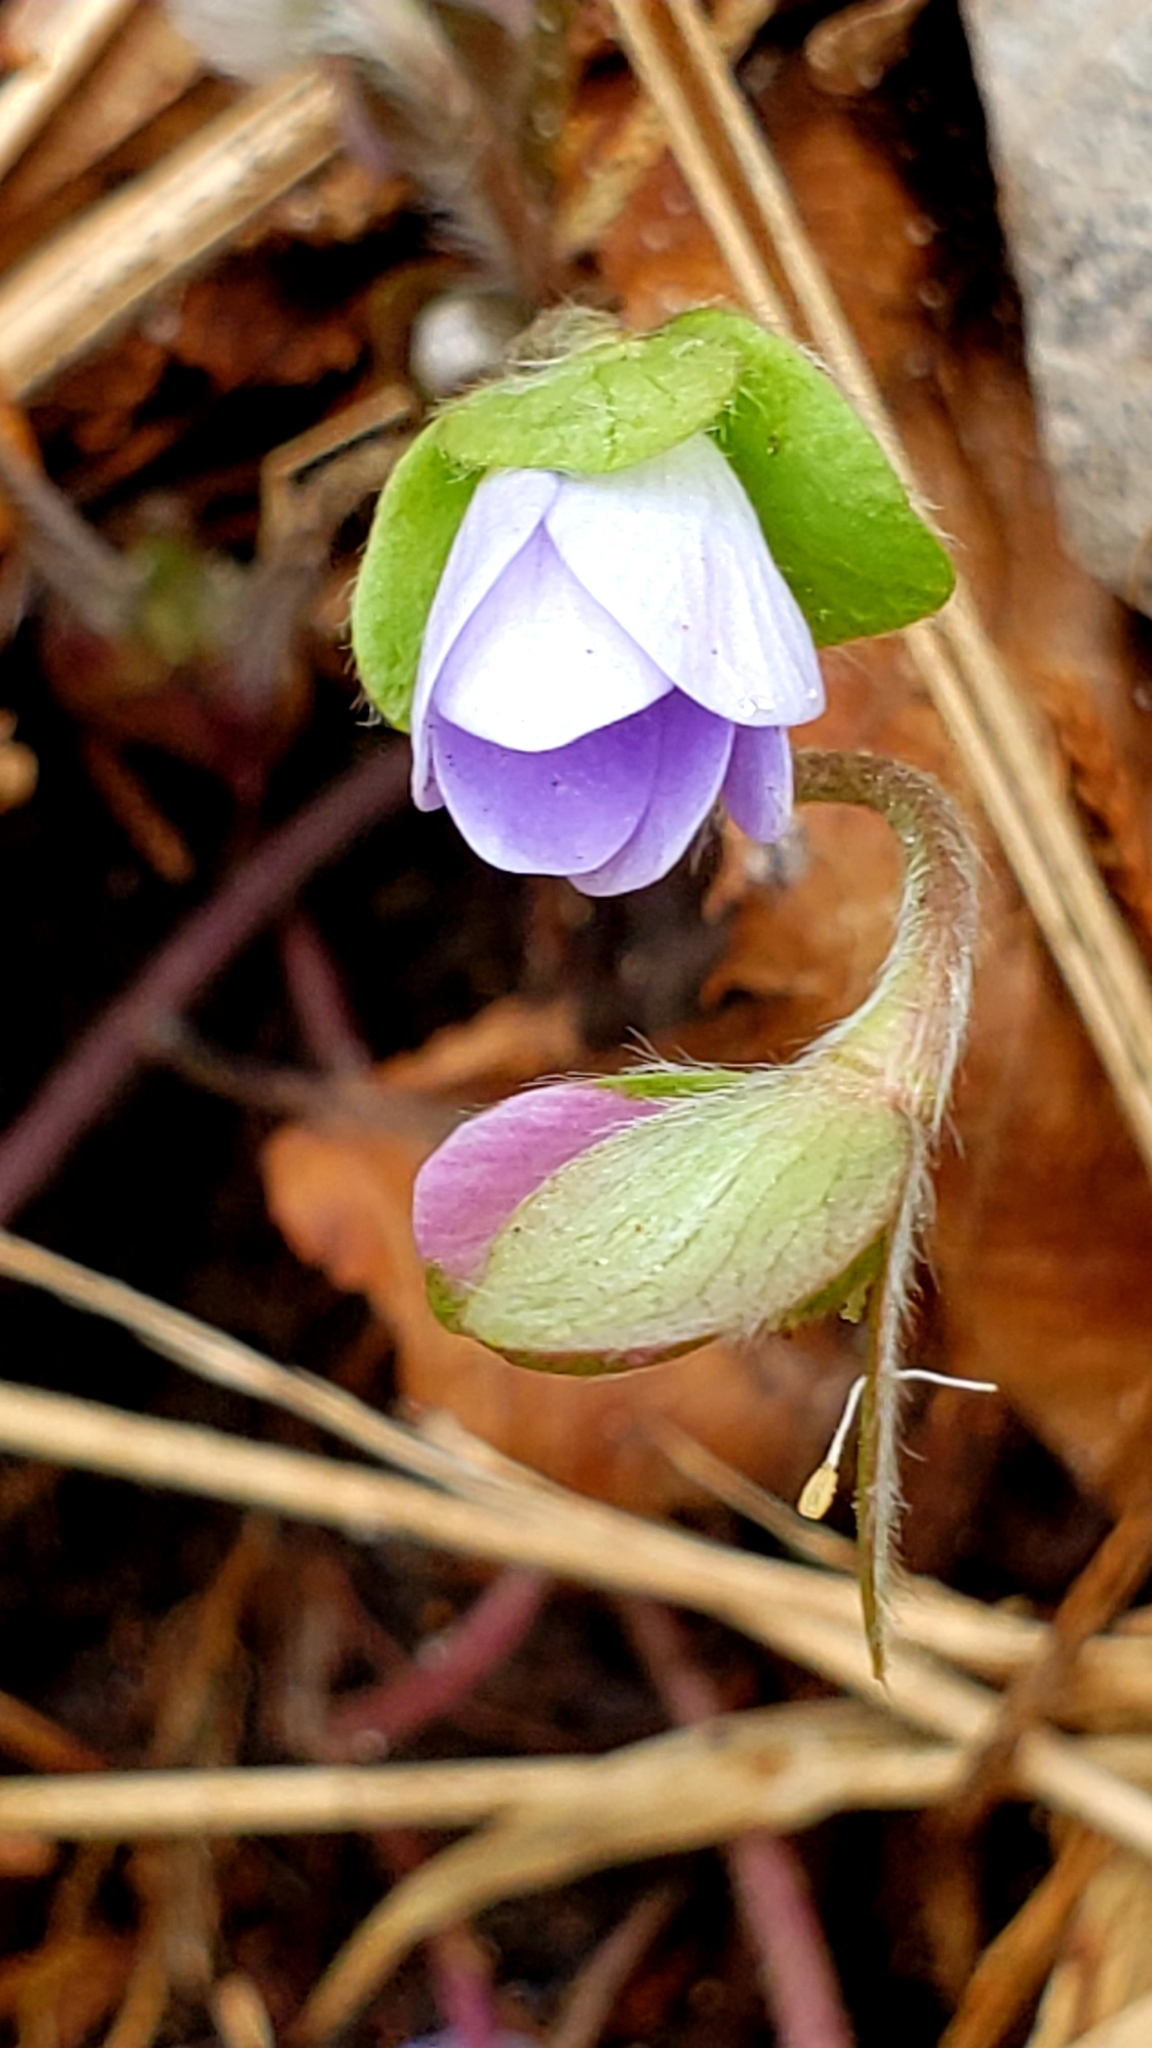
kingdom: Plantae
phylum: Tracheophyta
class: Magnoliopsida
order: Ranunculales
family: Ranunculaceae
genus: Hepatica
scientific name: Hepatica americana
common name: American hepatica
